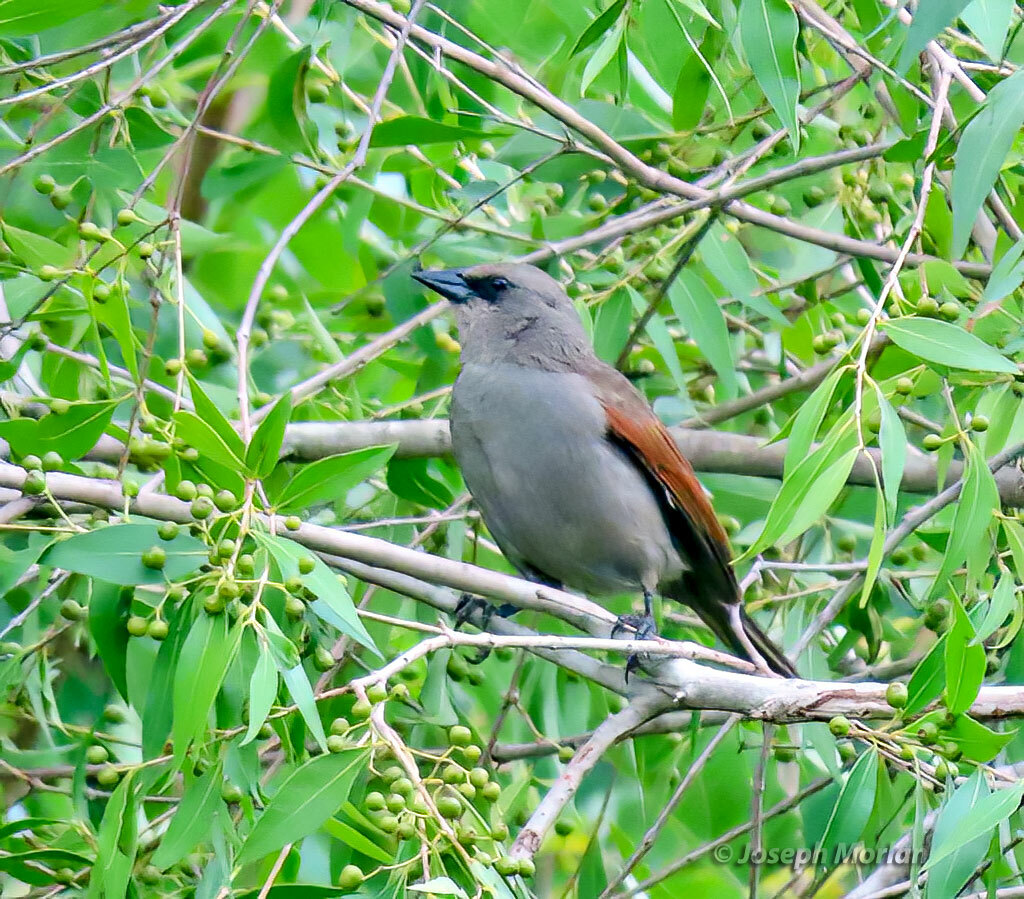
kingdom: Animalia
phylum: Chordata
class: Aves
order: Passeriformes
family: Icteridae
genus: Agelaioides
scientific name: Agelaioides badius
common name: Baywing
